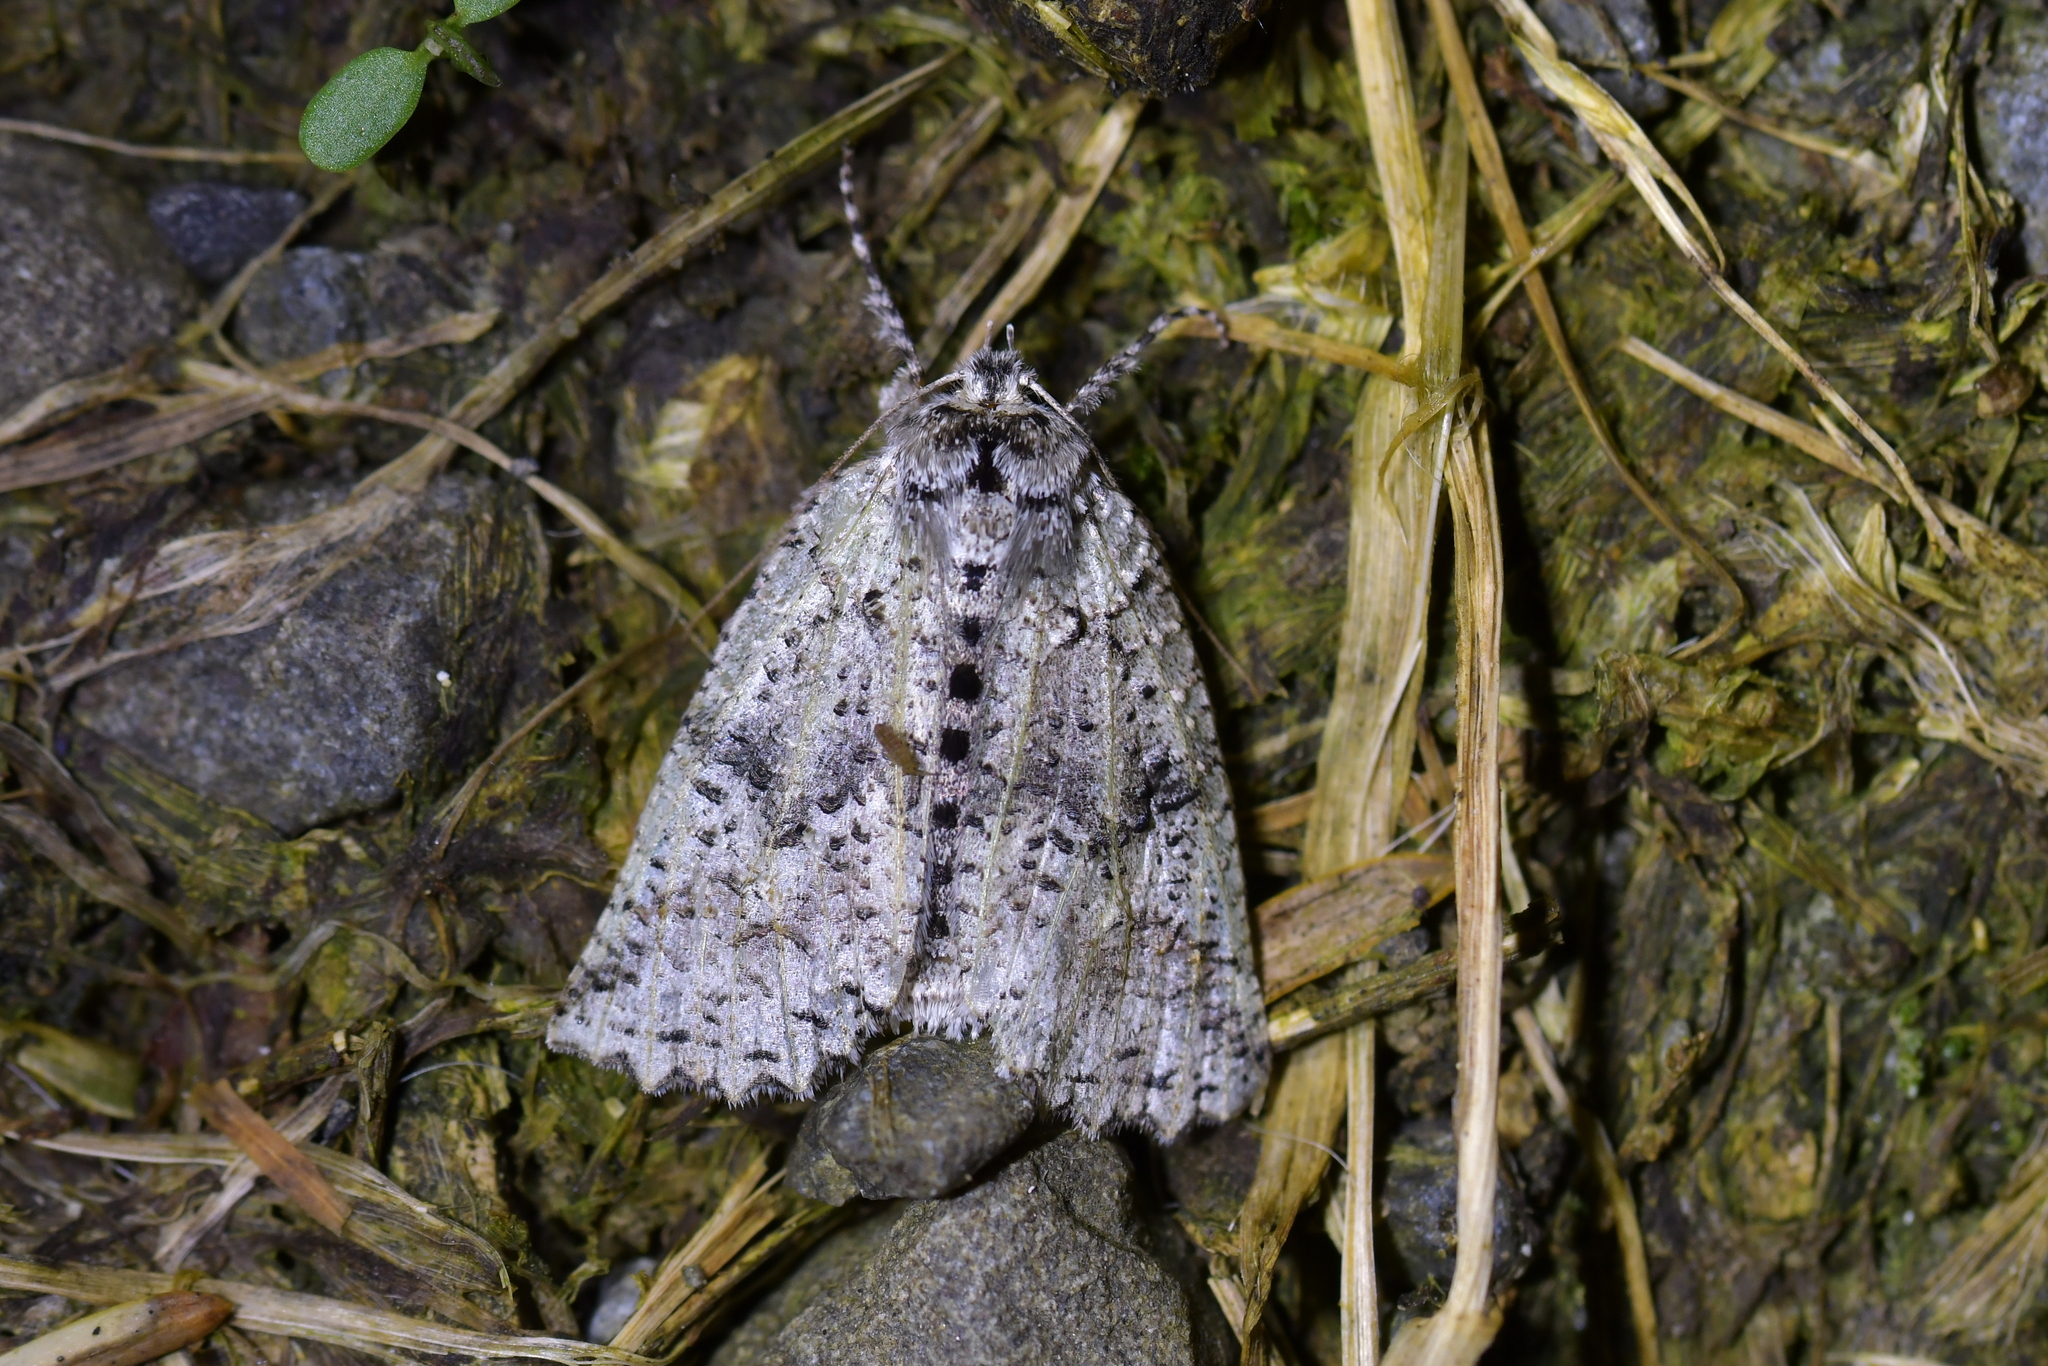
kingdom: Animalia
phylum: Arthropoda
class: Insecta
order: Lepidoptera
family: Geometridae
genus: Declana
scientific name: Declana floccosa
